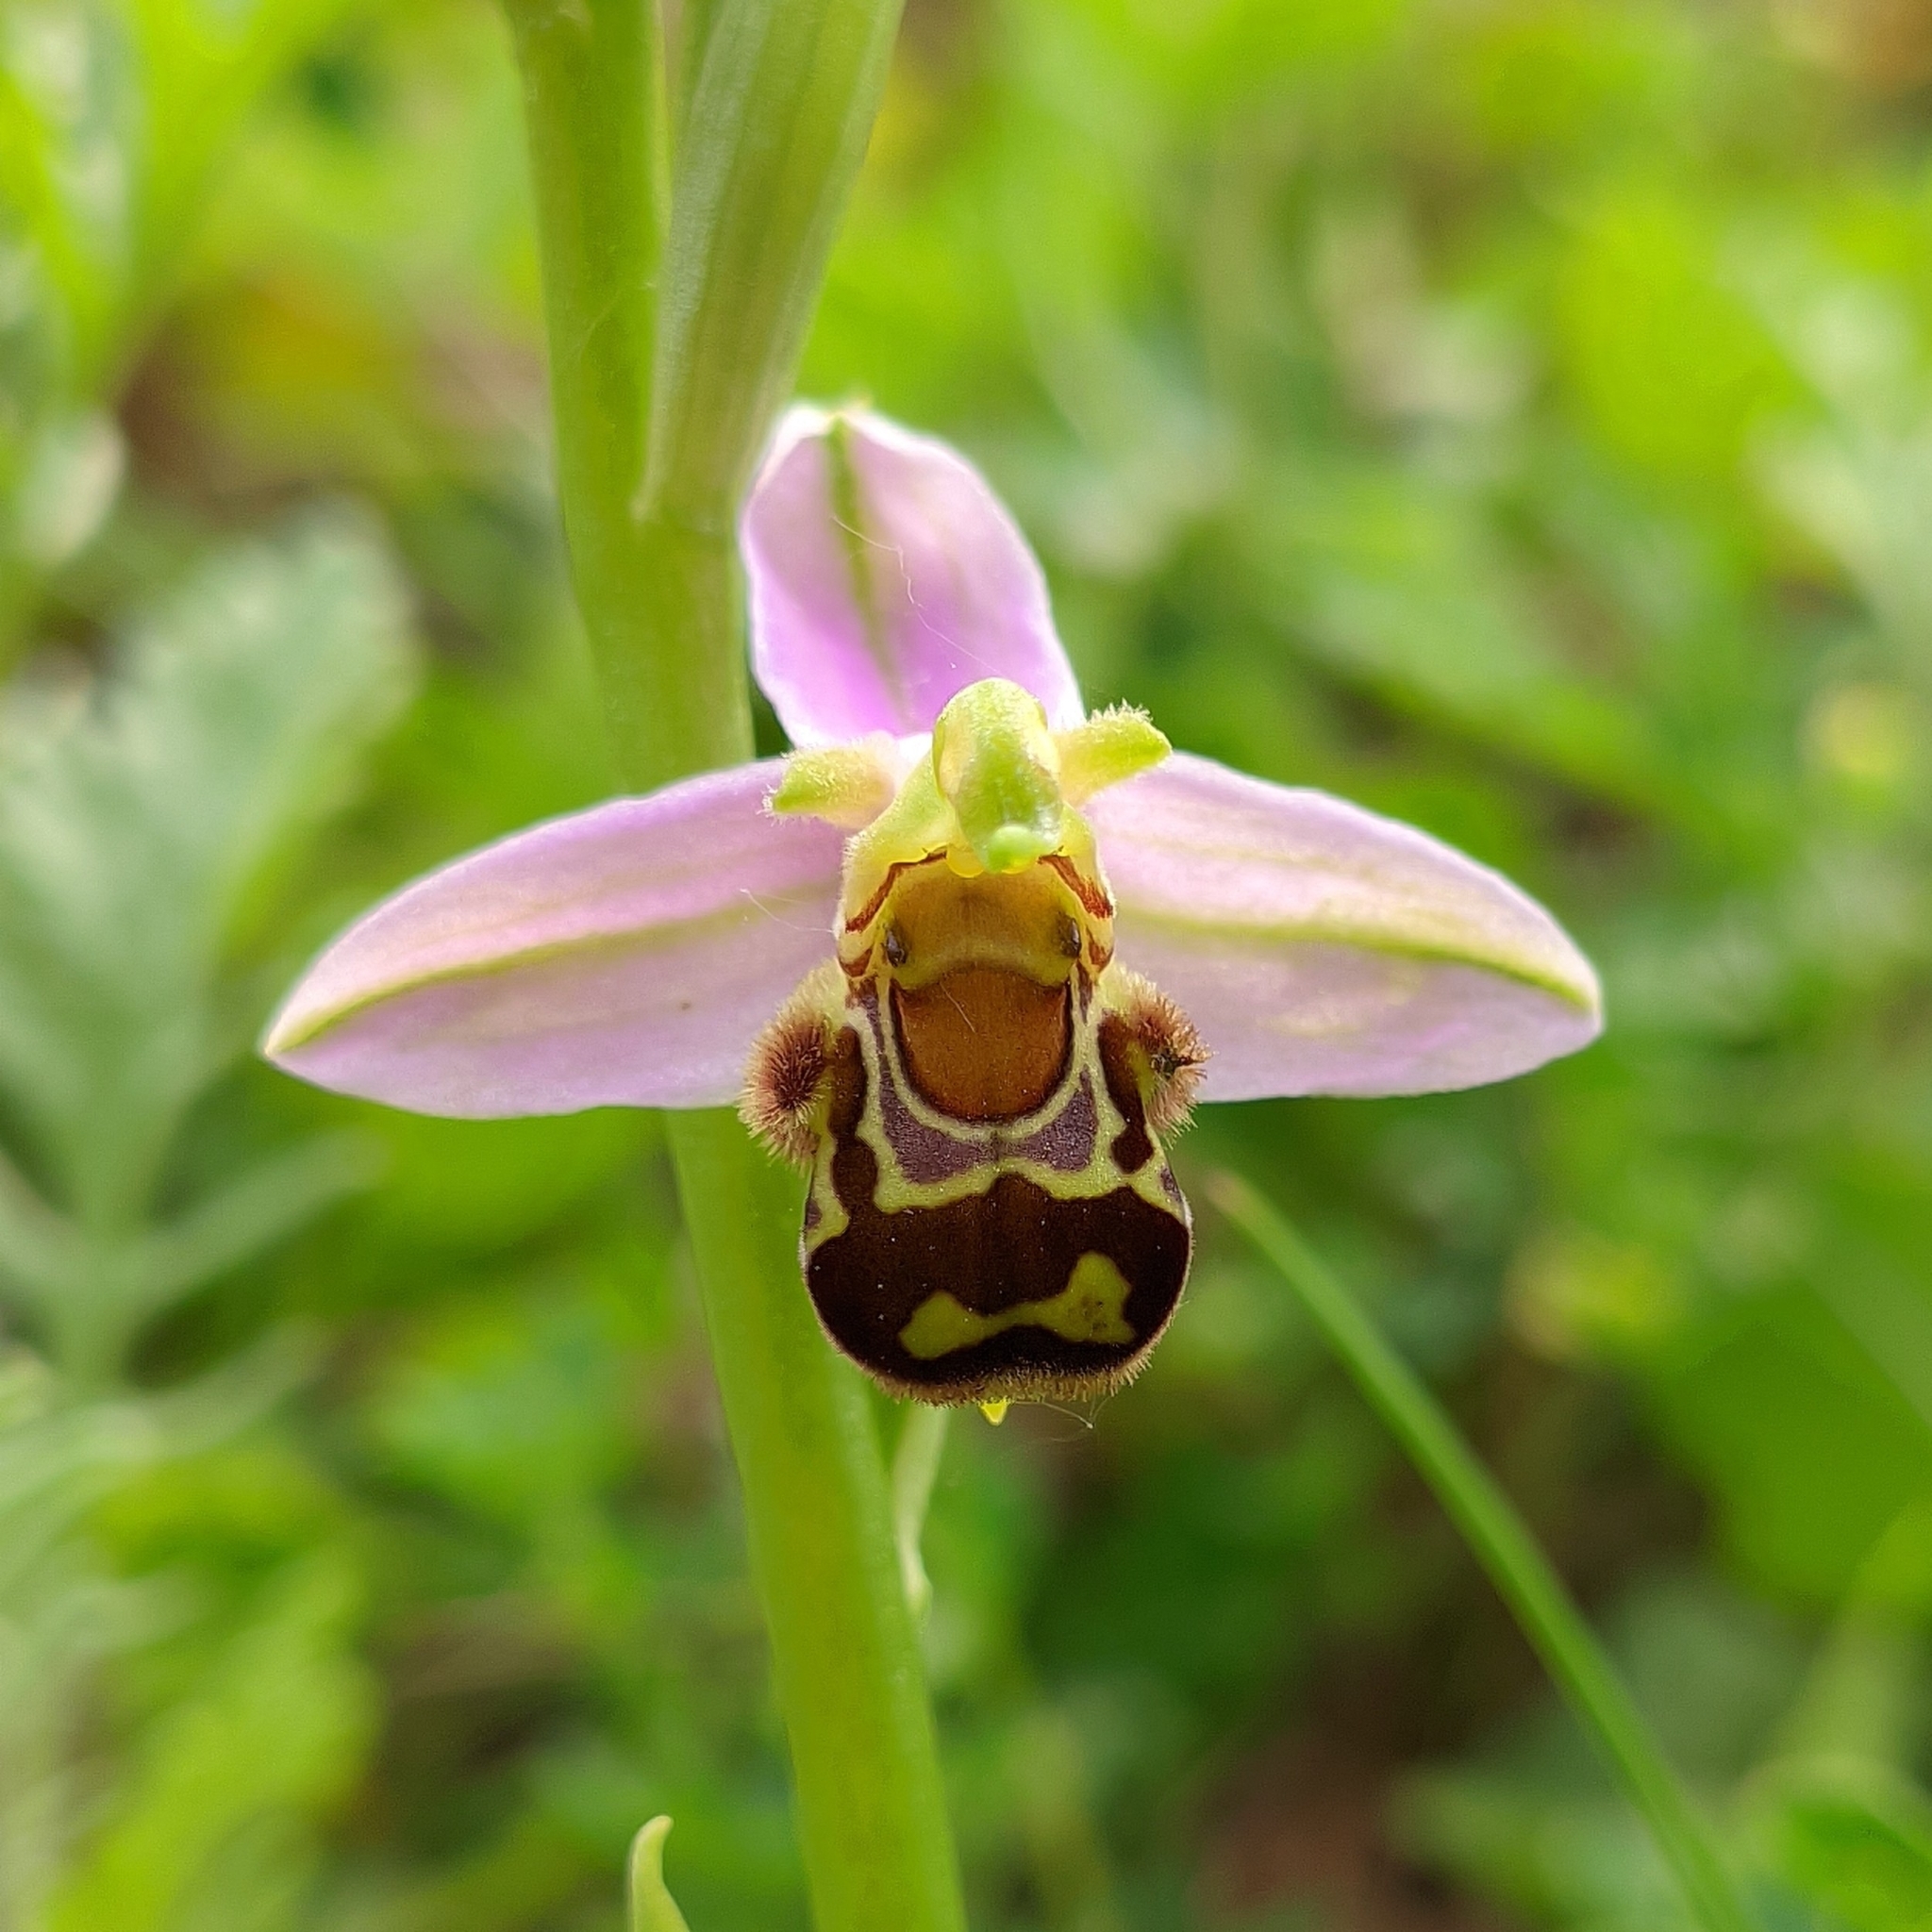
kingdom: Plantae
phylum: Tracheophyta
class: Liliopsida
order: Asparagales
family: Orchidaceae
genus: Ophrys
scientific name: Ophrys apifera
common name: Bee orchid
